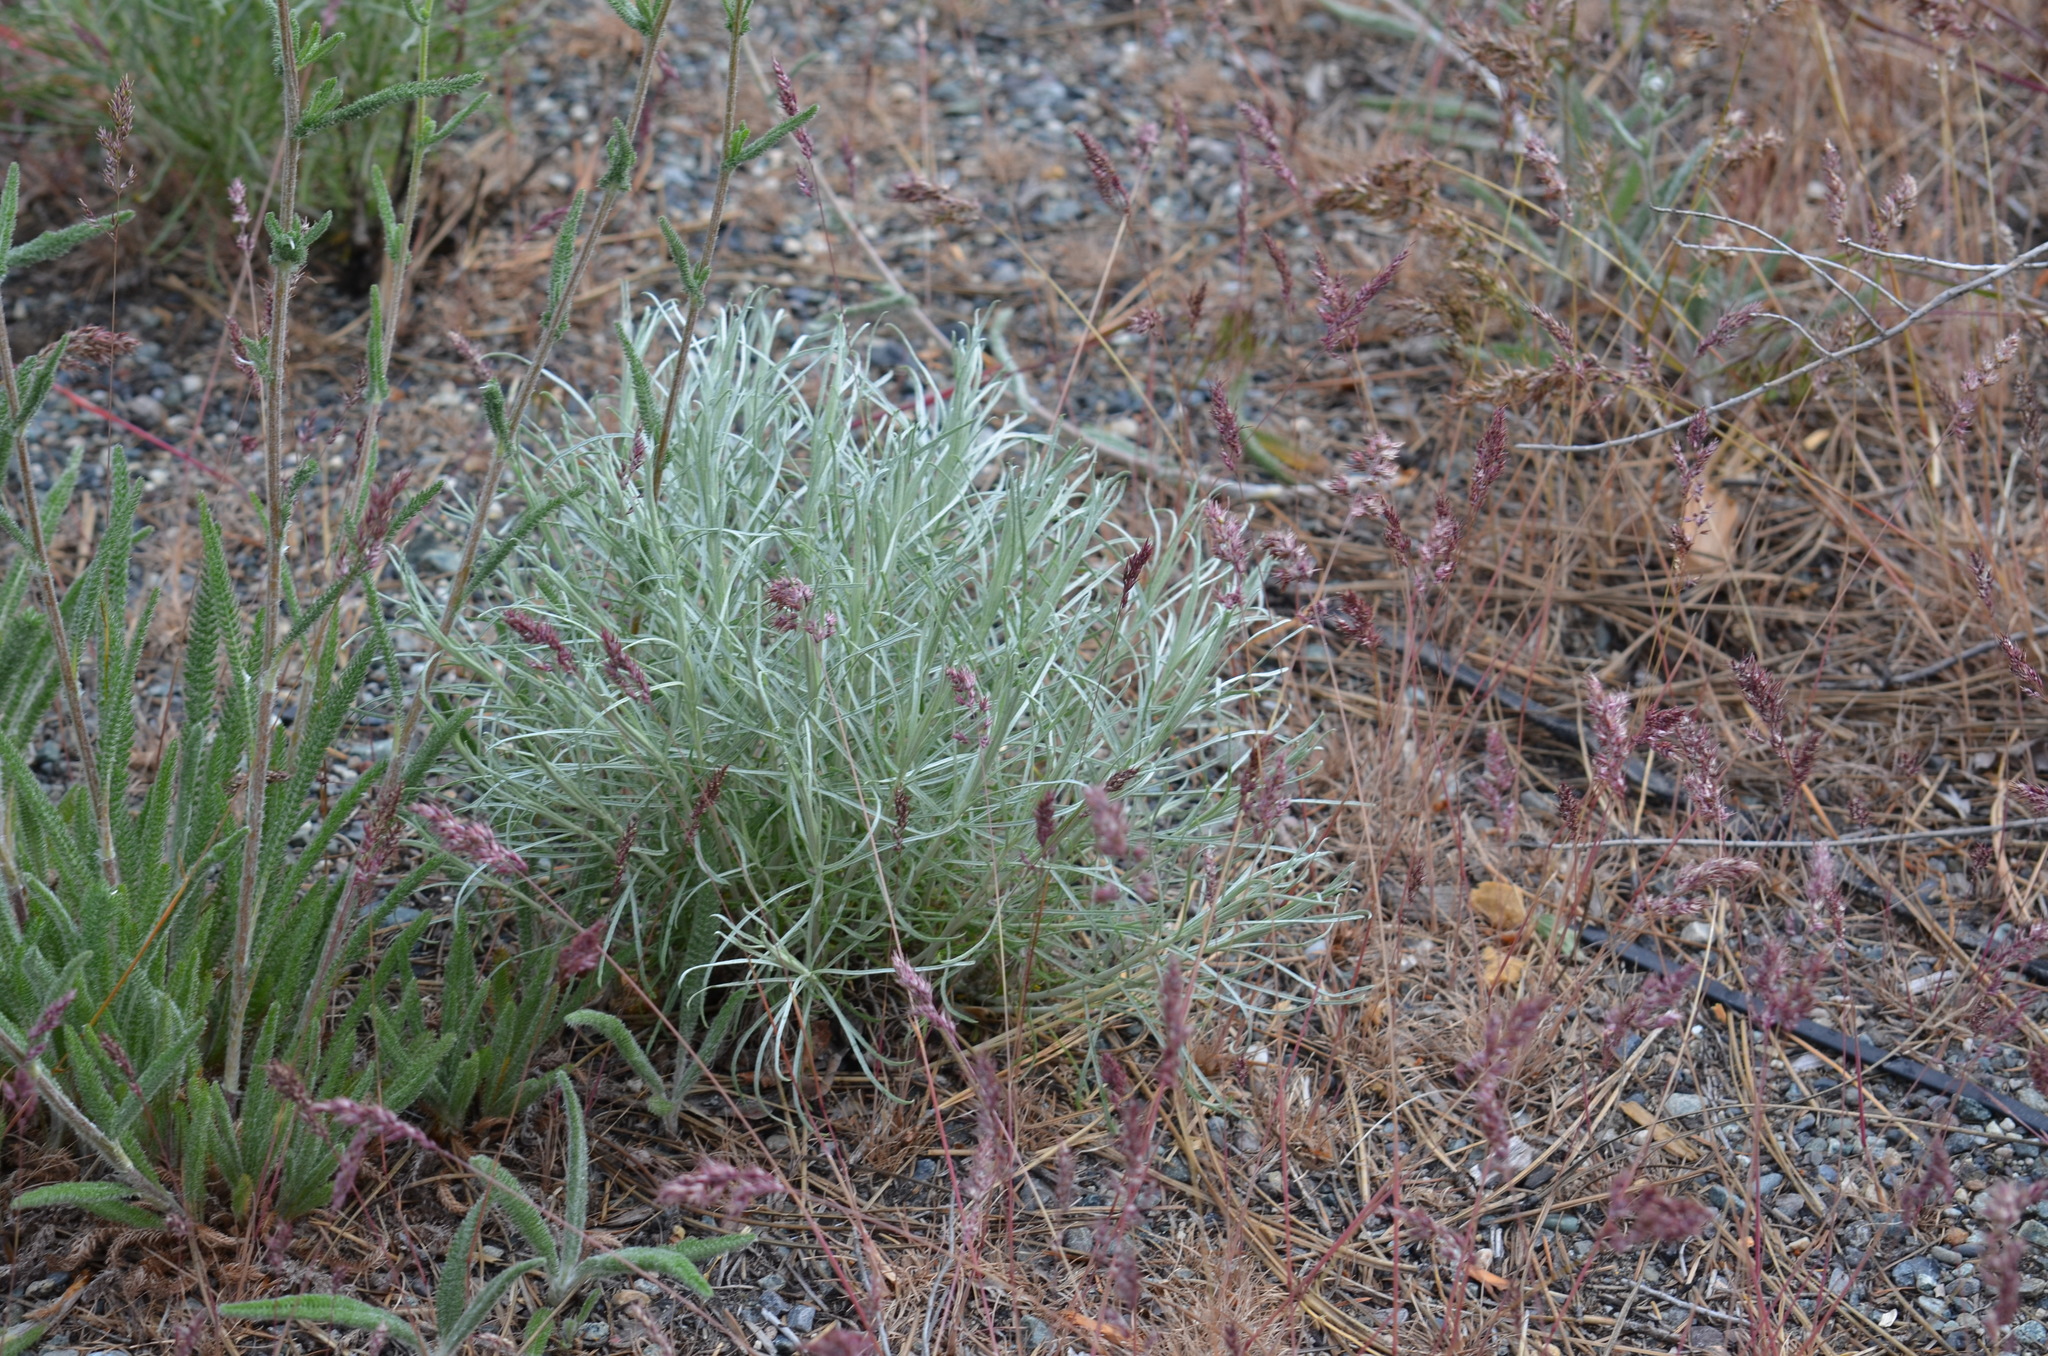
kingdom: Plantae
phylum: Tracheophyta
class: Magnoliopsida
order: Asterales
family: Asteraceae
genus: Achillea
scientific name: Achillea millefolium
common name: Yarrow
